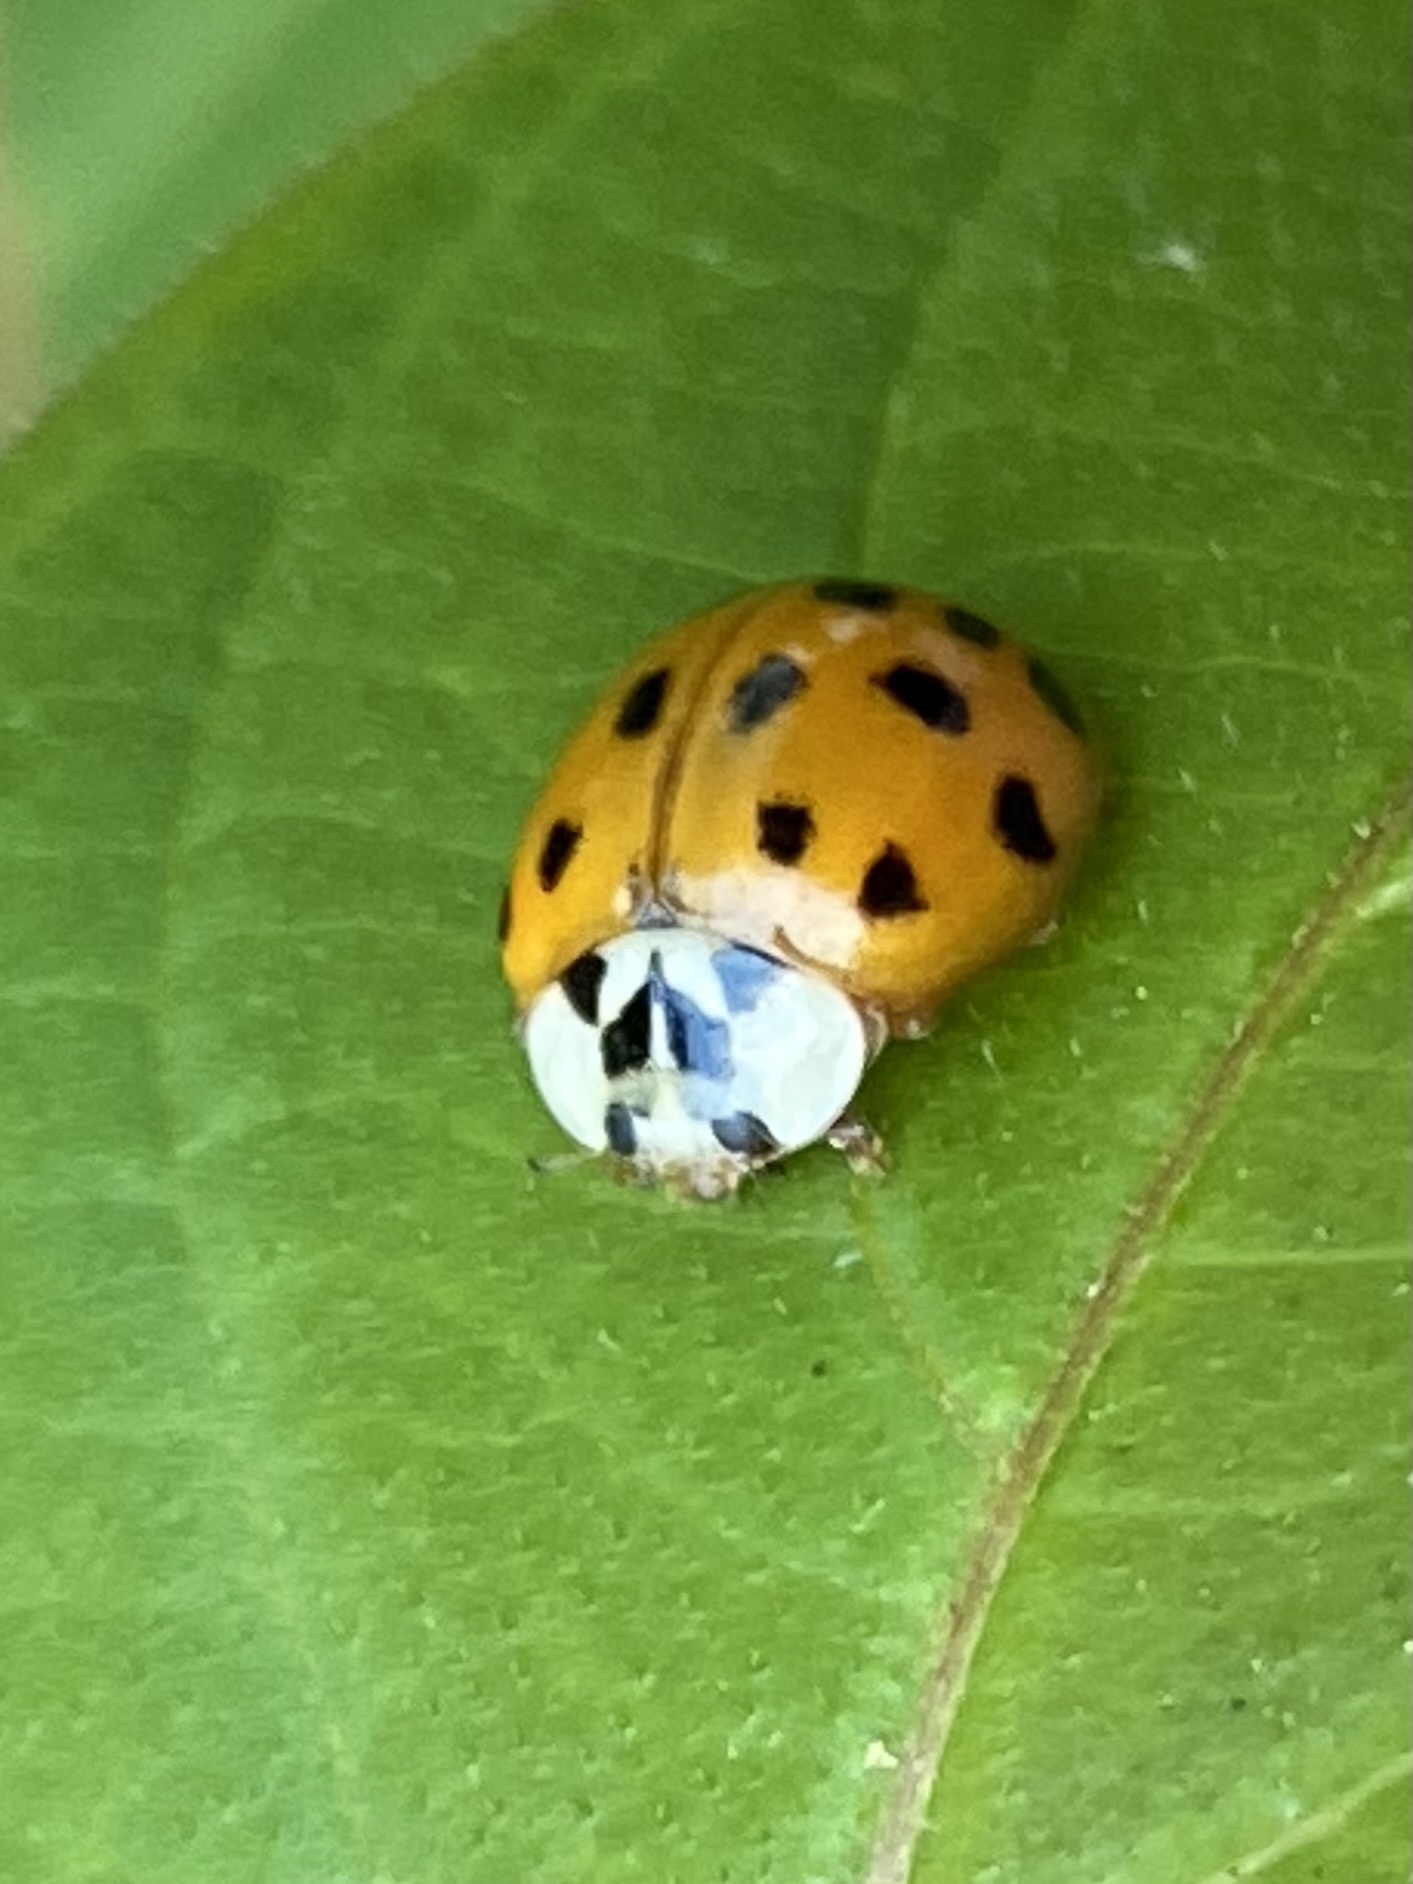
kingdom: Animalia
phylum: Arthropoda
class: Insecta
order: Coleoptera
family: Coccinellidae
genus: Harmonia
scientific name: Harmonia axyridis
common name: Harlequin ladybird
